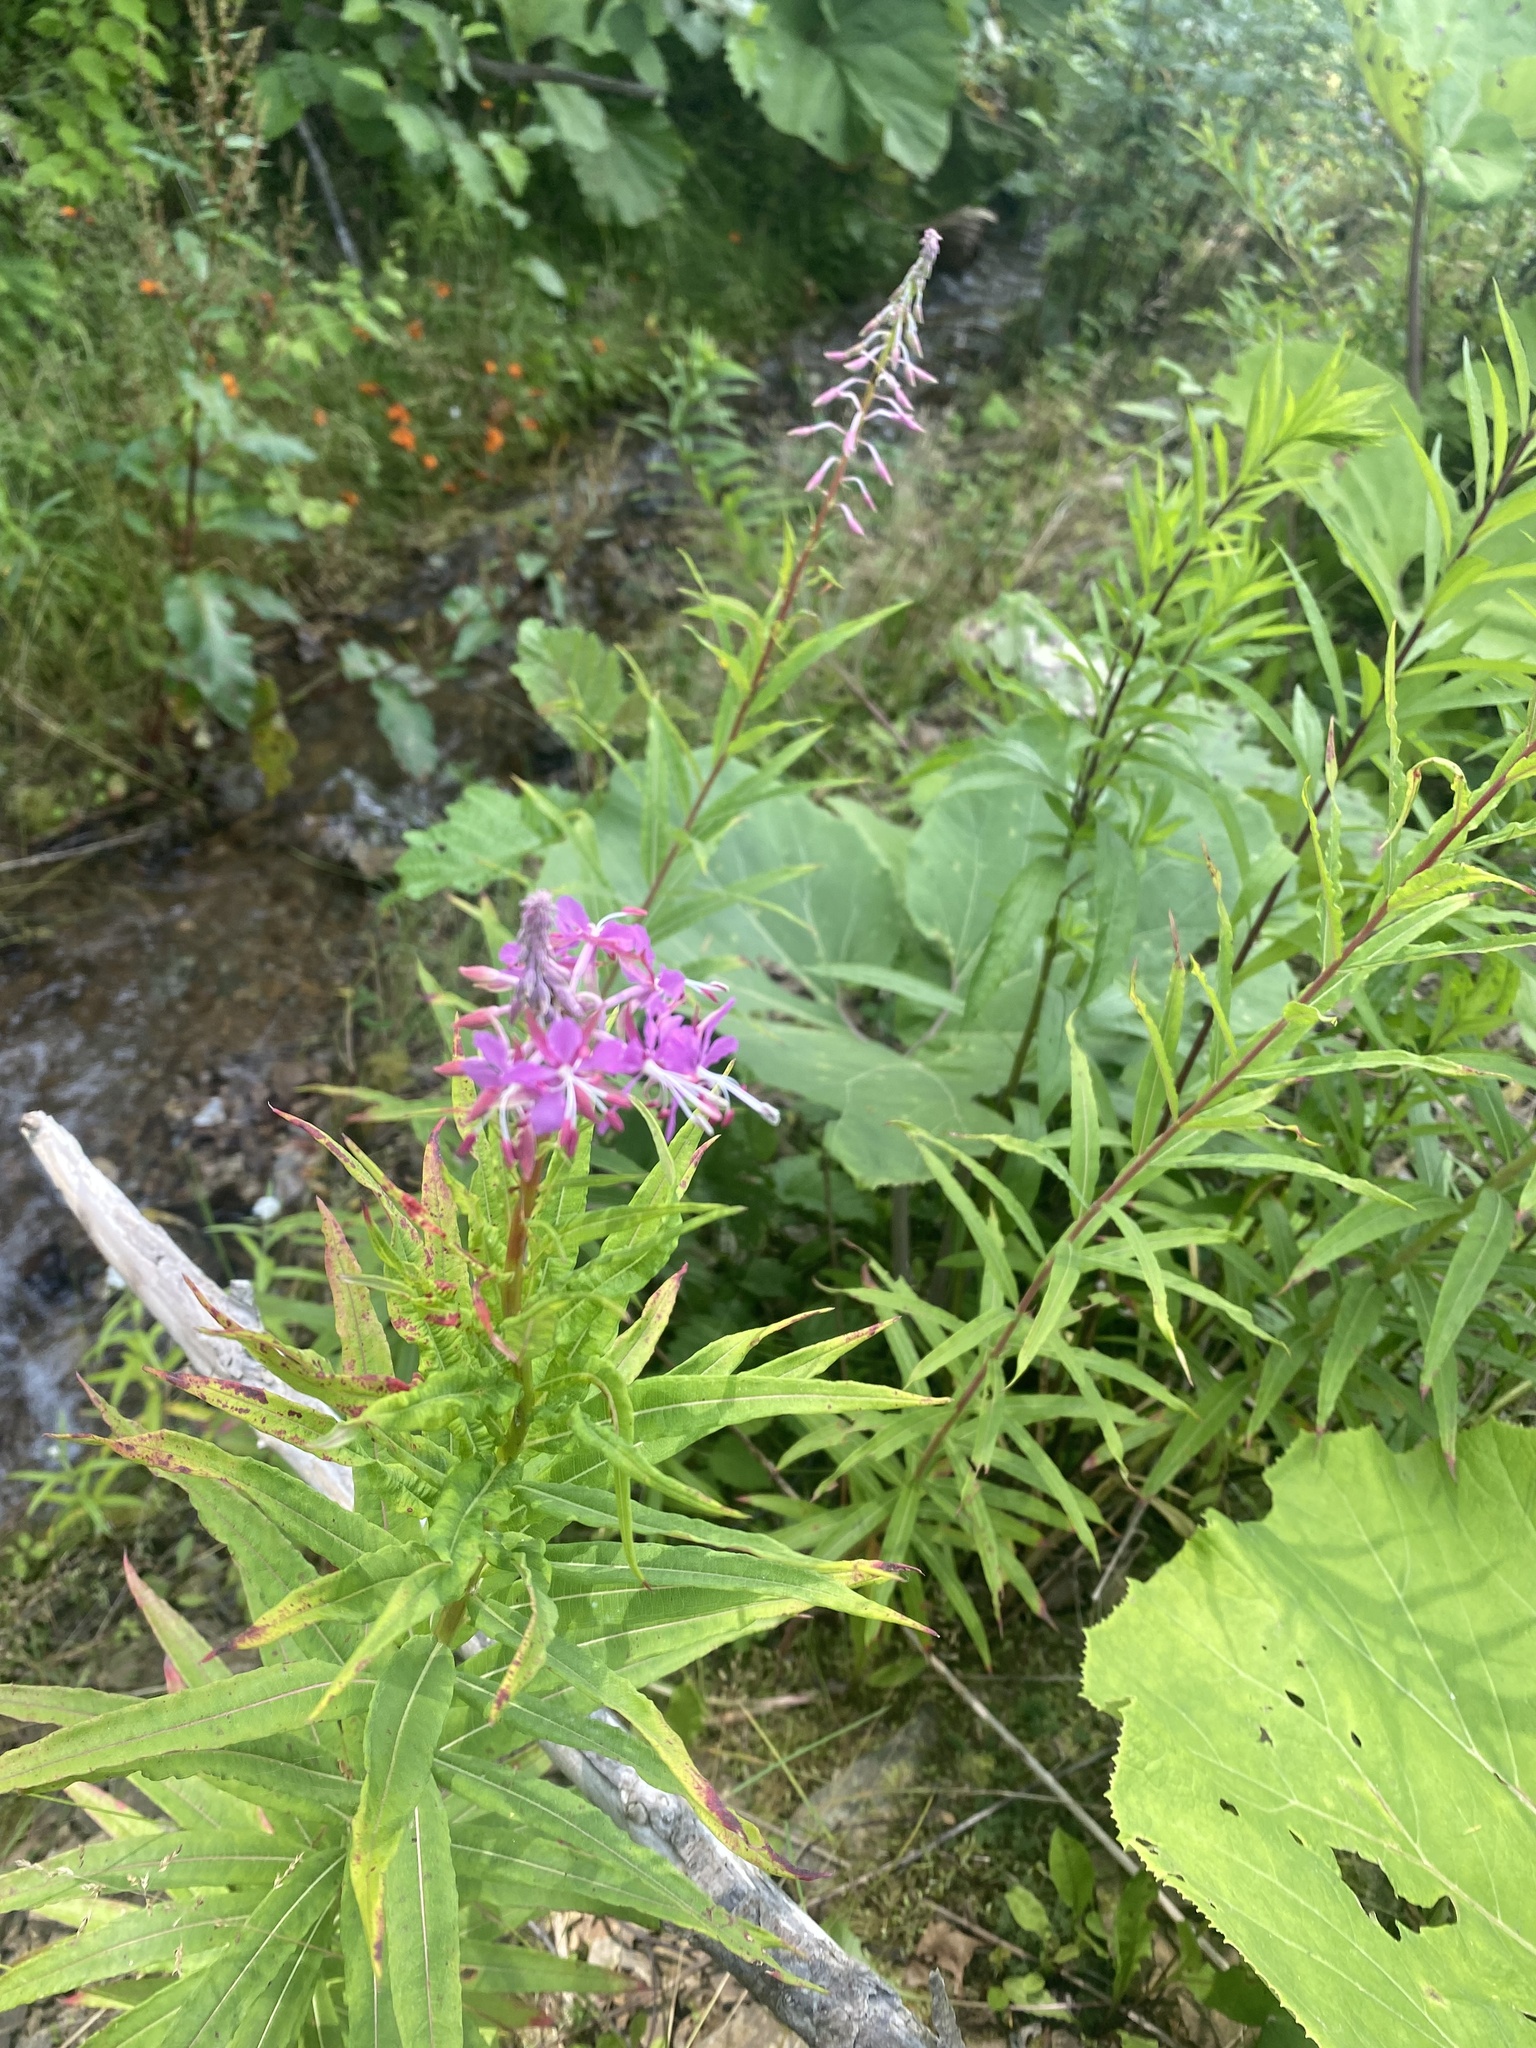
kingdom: Plantae
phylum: Tracheophyta
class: Magnoliopsida
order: Myrtales
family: Onagraceae
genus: Chamaenerion
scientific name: Chamaenerion angustifolium
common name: Fireweed
